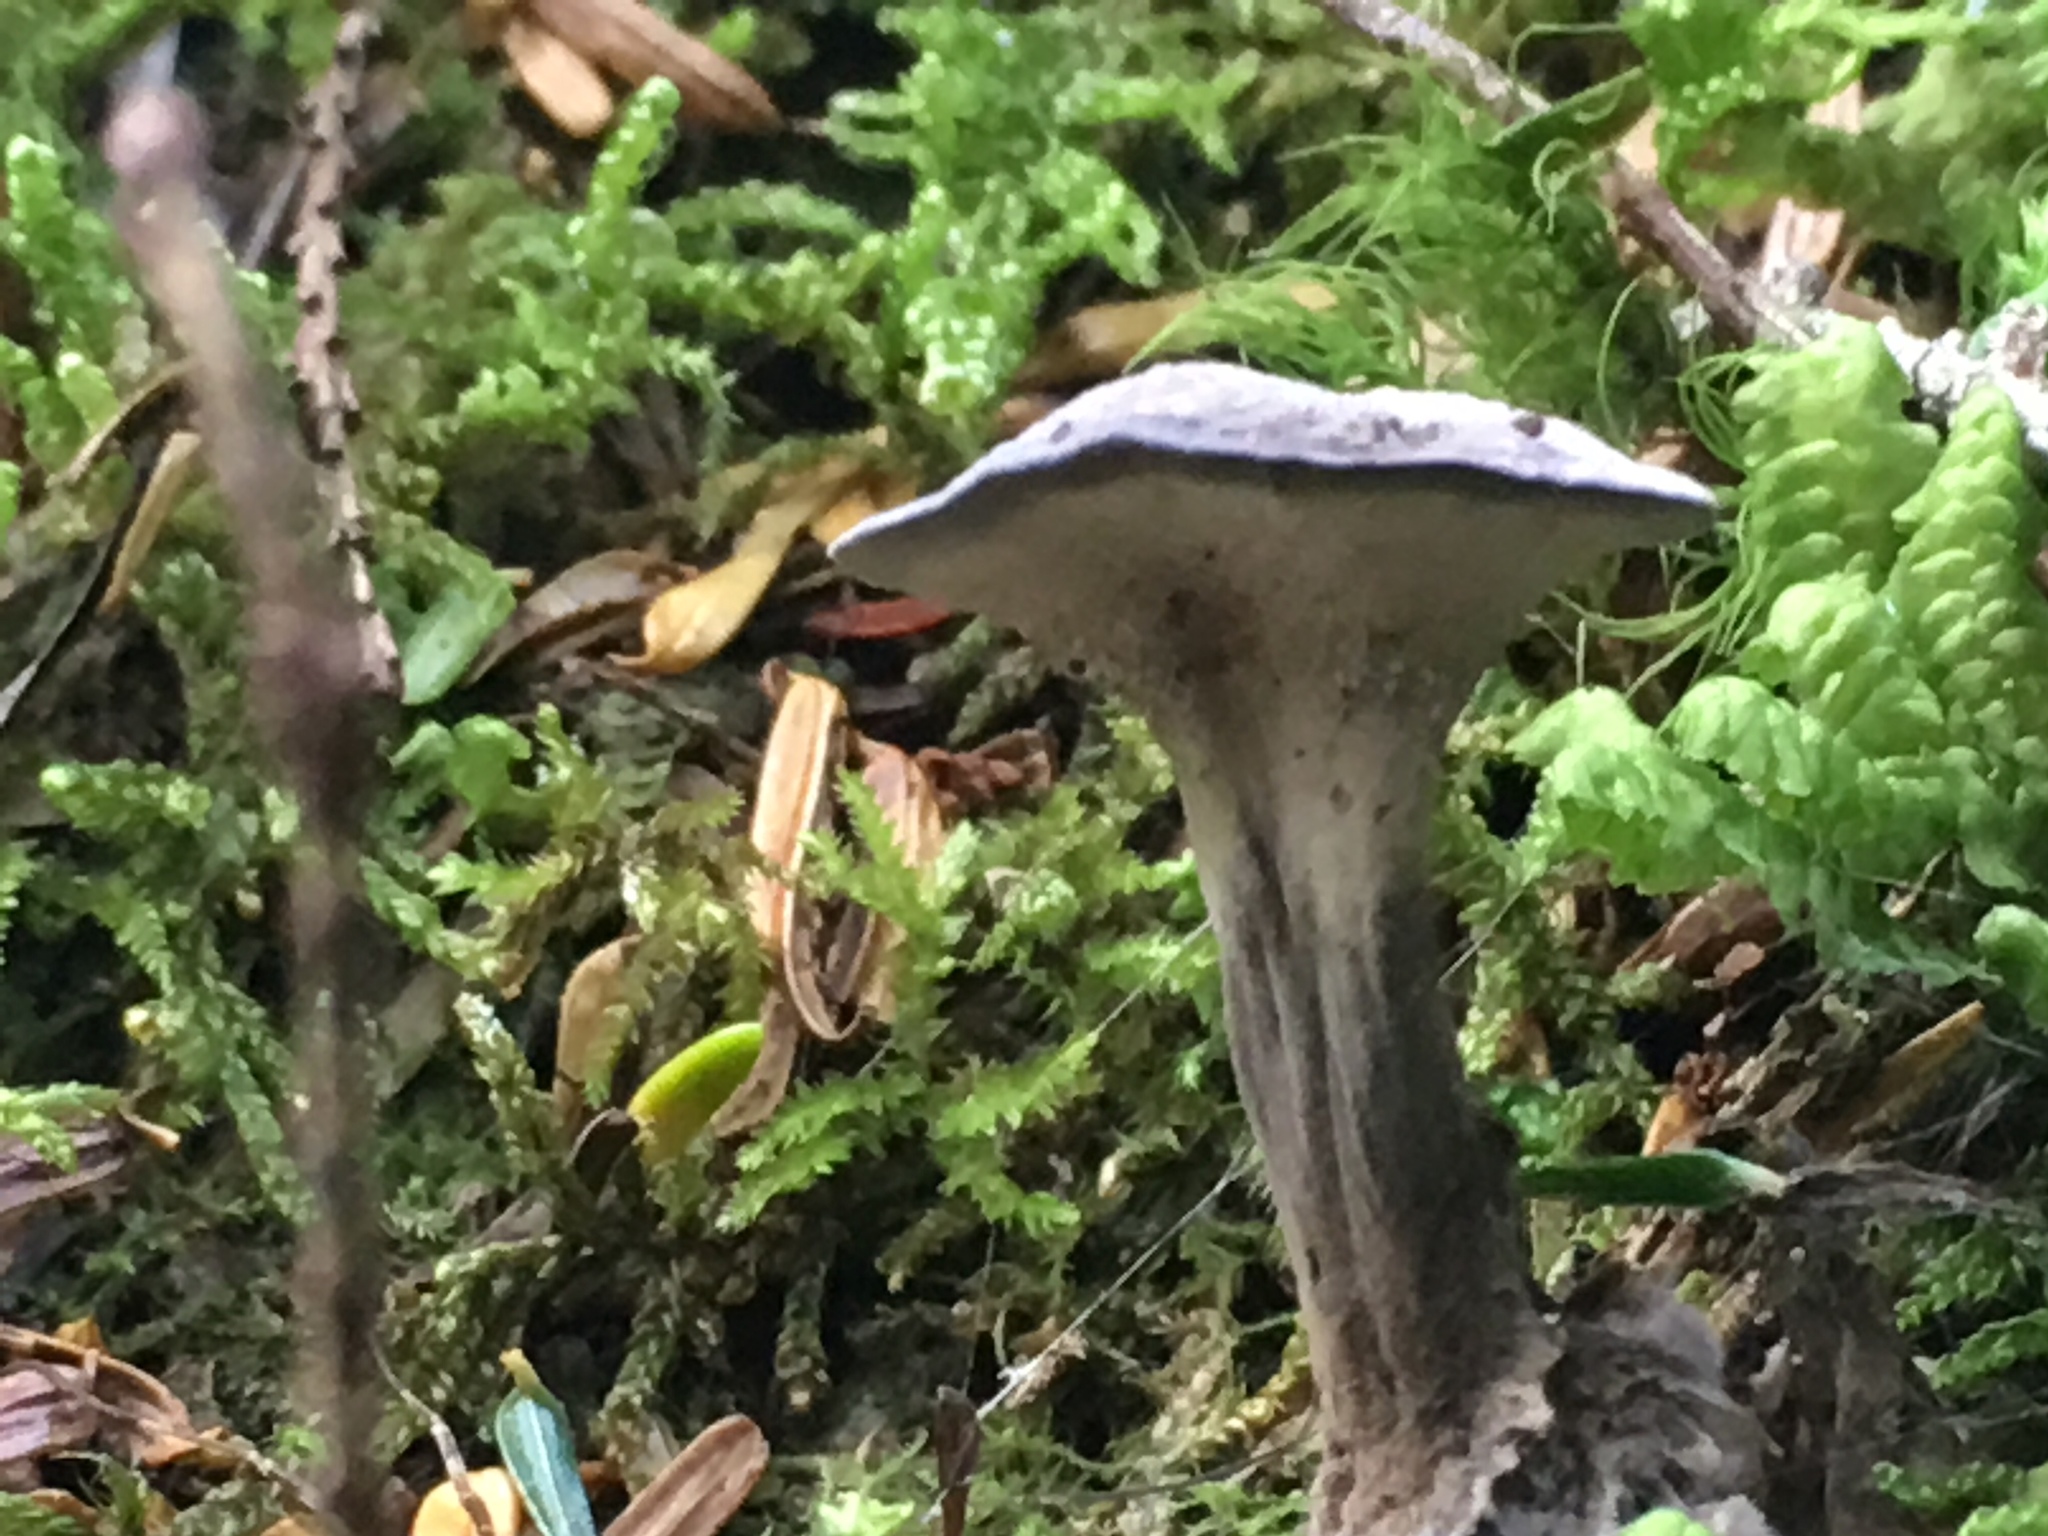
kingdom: Fungi
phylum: Basidiomycota
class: Agaricomycetes
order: Thelephorales
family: Bankeraceae
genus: Hydnellum
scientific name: Hydnellum caeruleum
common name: Blue corky spine fungus
